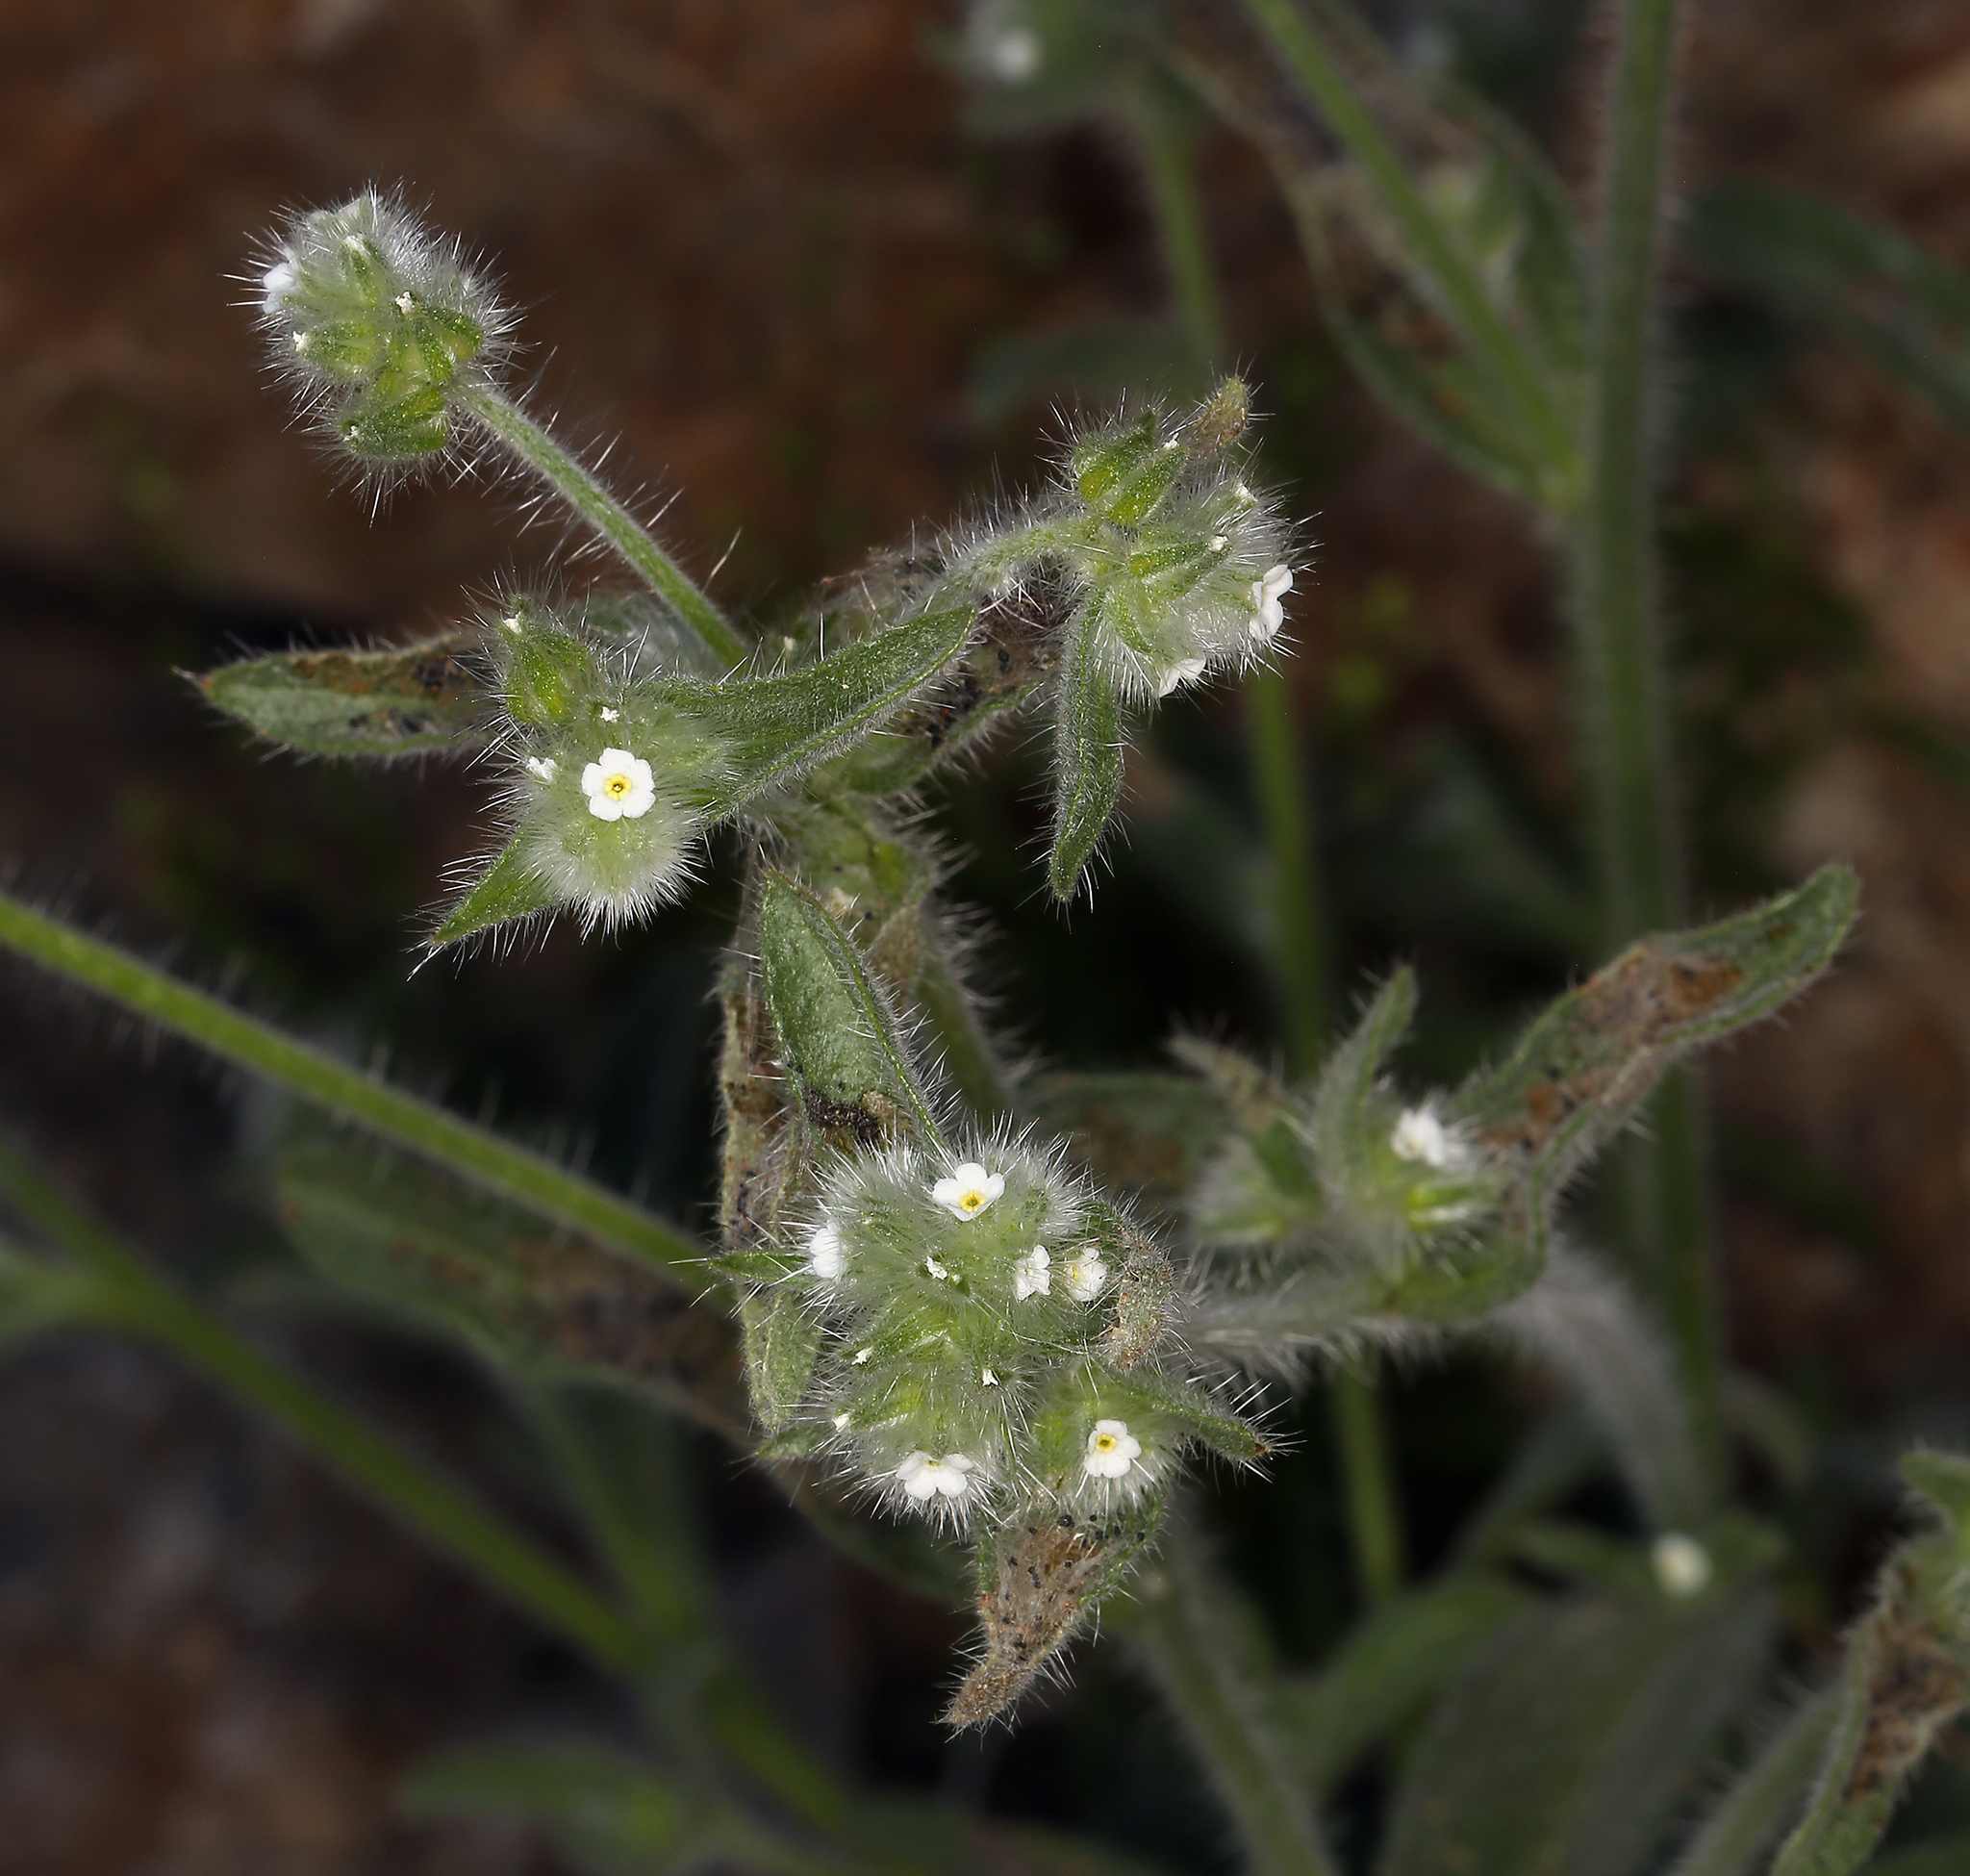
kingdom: Plantae
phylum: Tracheophyta
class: Magnoliopsida
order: Boraginales
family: Boraginaceae
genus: Simpsonanthus
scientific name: Simpsonanthus jonesii
